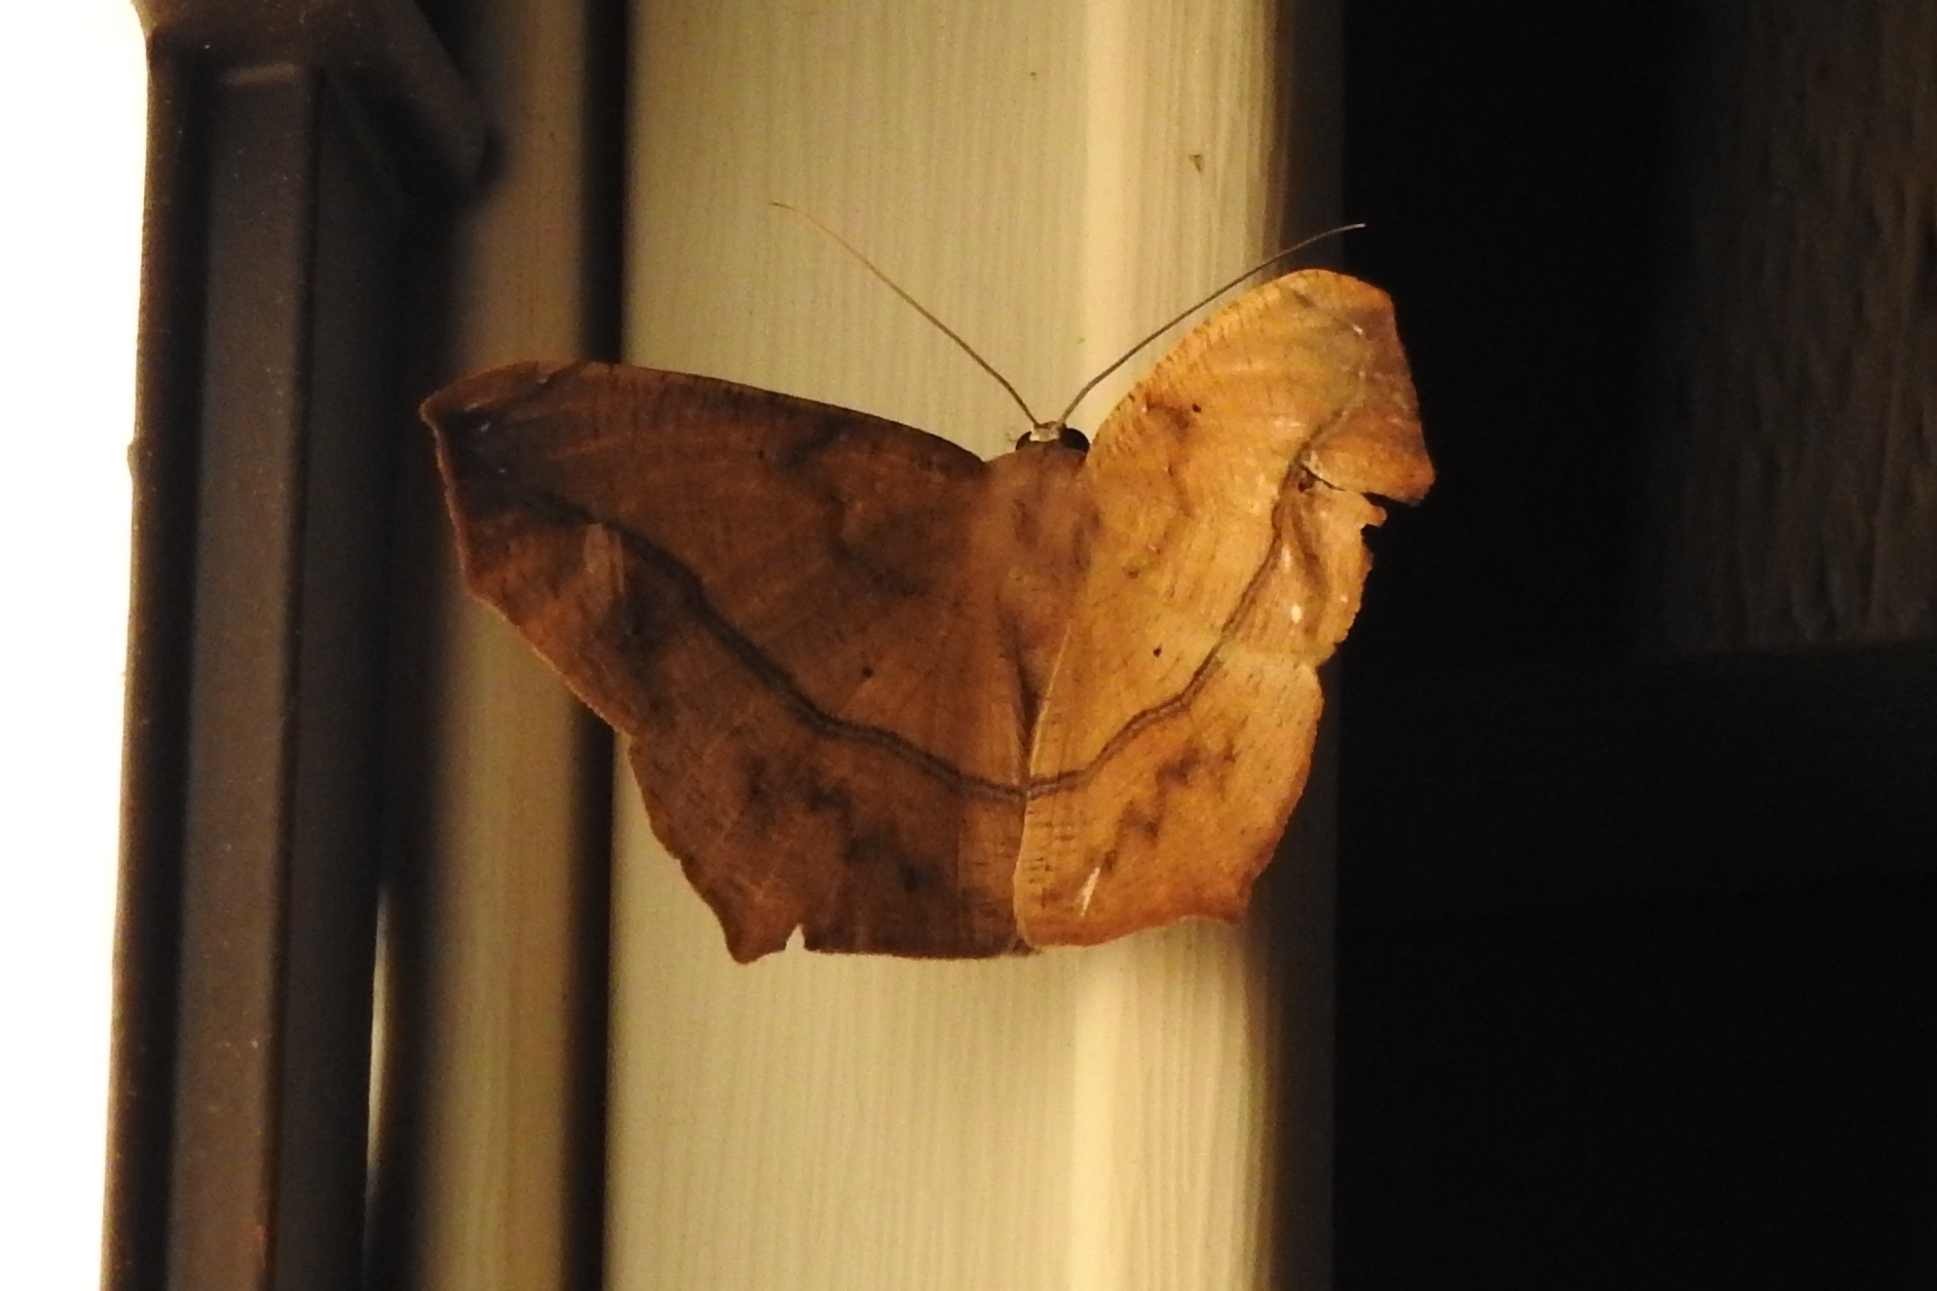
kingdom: Animalia
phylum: Arthropoda
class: Insecta
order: Lepidoptera
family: Geometridae
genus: Prochoerodes
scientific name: Prochoerodes lineola
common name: Large maple spanworm
